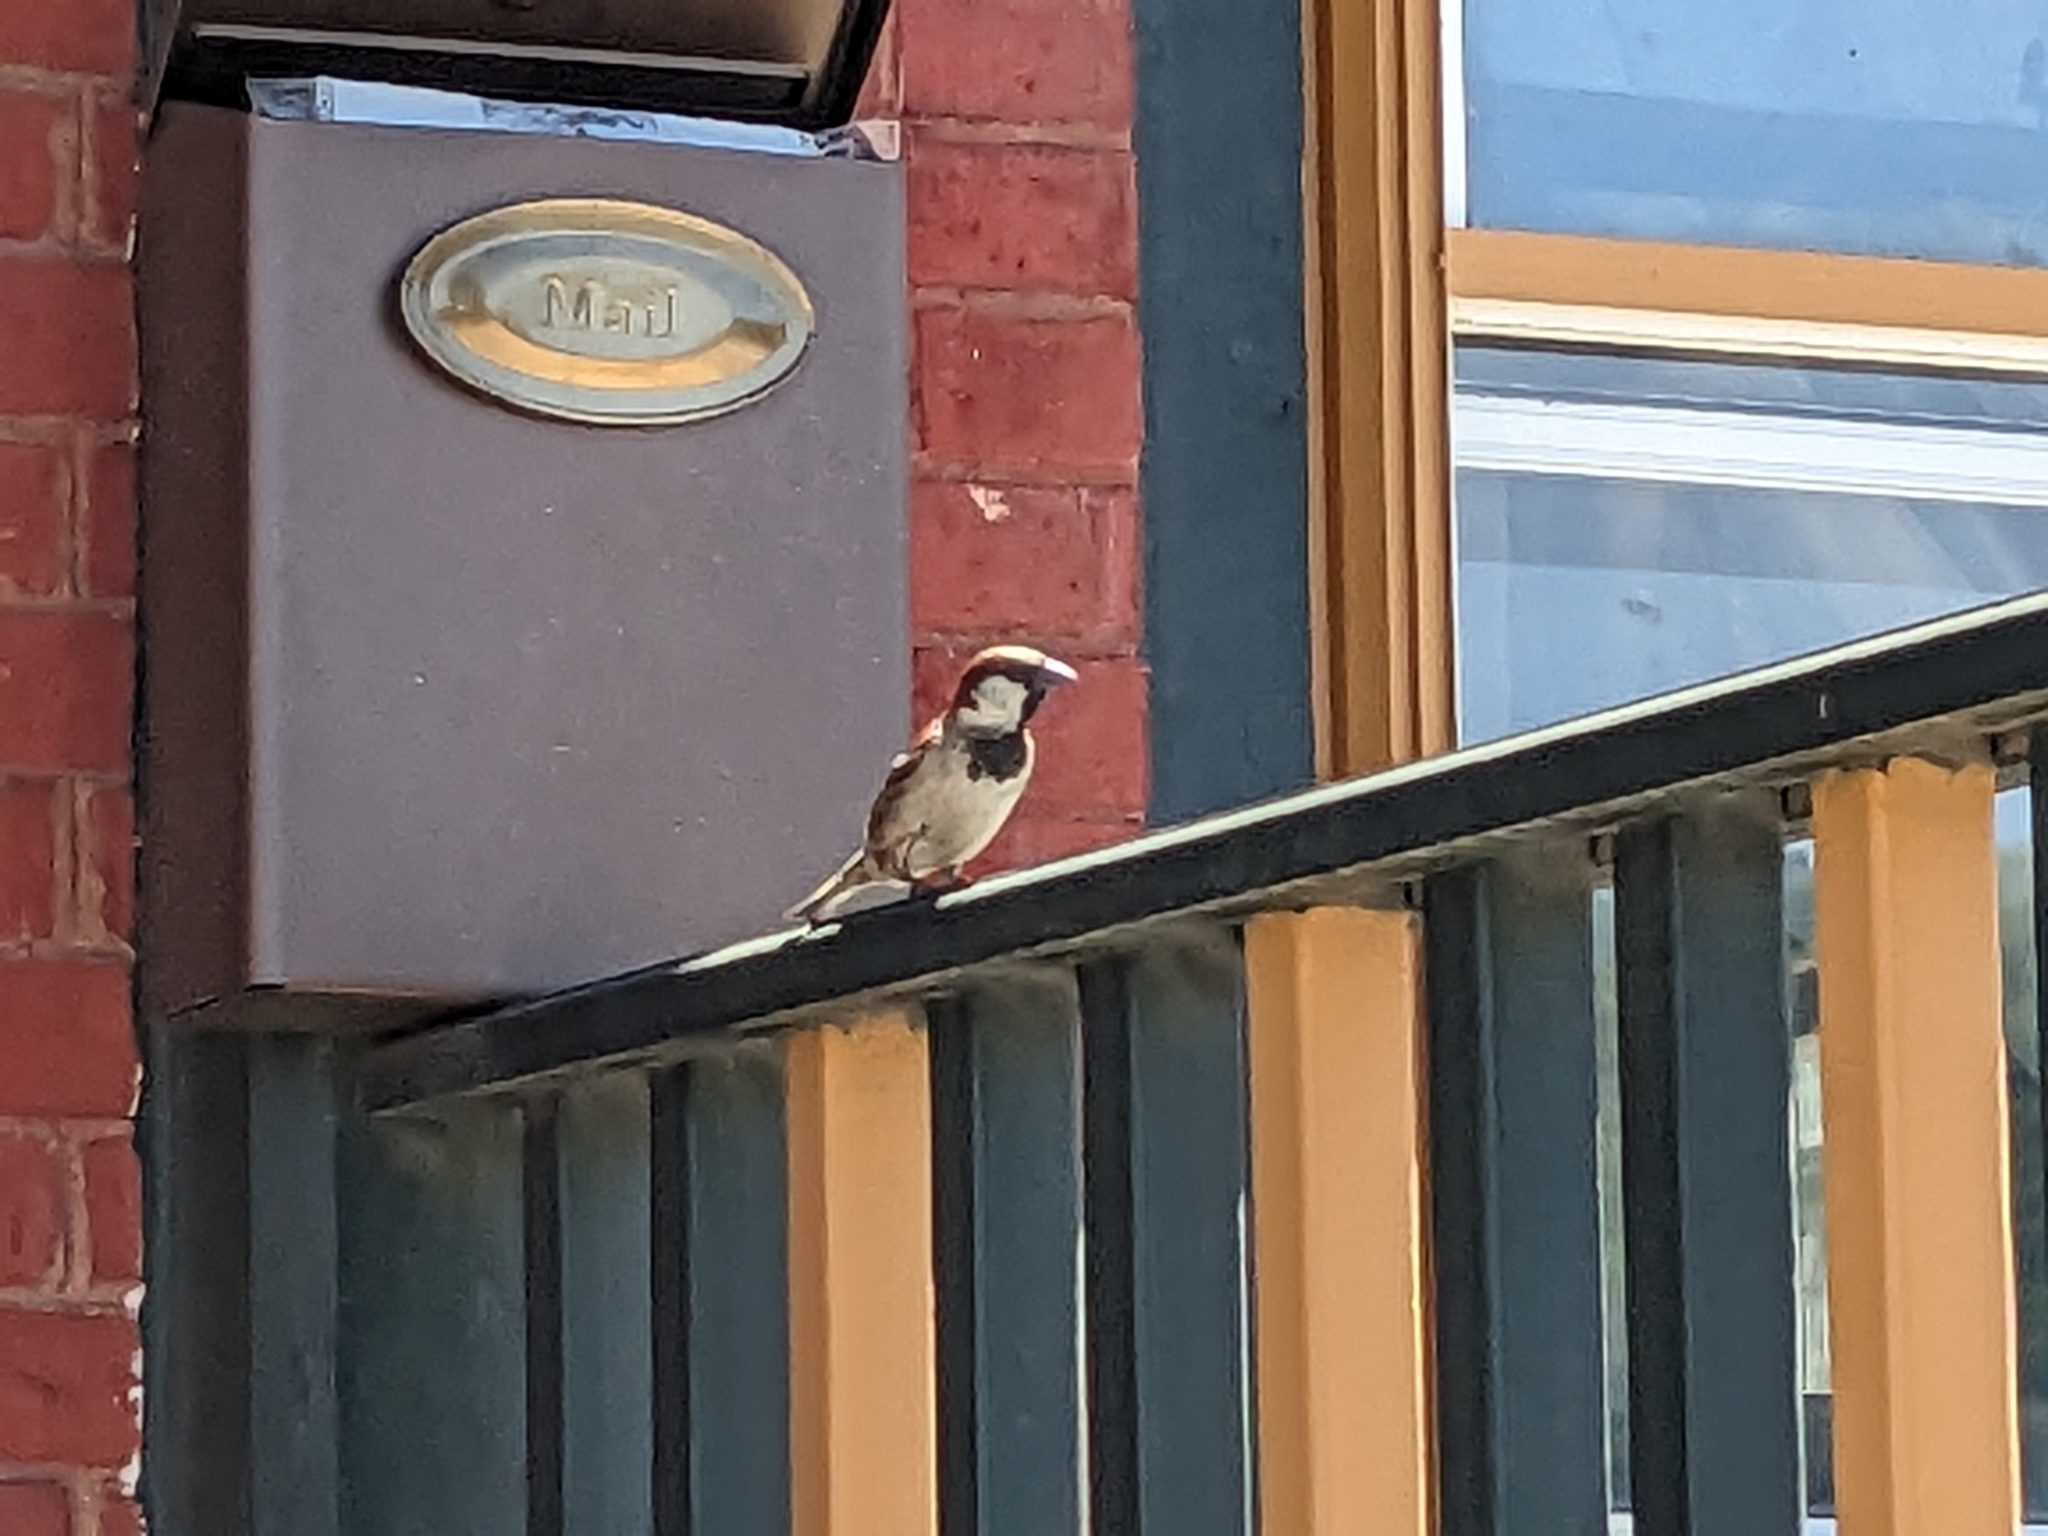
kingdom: Animalia
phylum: Chordata
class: Aves
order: Passeriformes
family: Passeridae
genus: Passer
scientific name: Passer domesticus
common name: House sparrow
